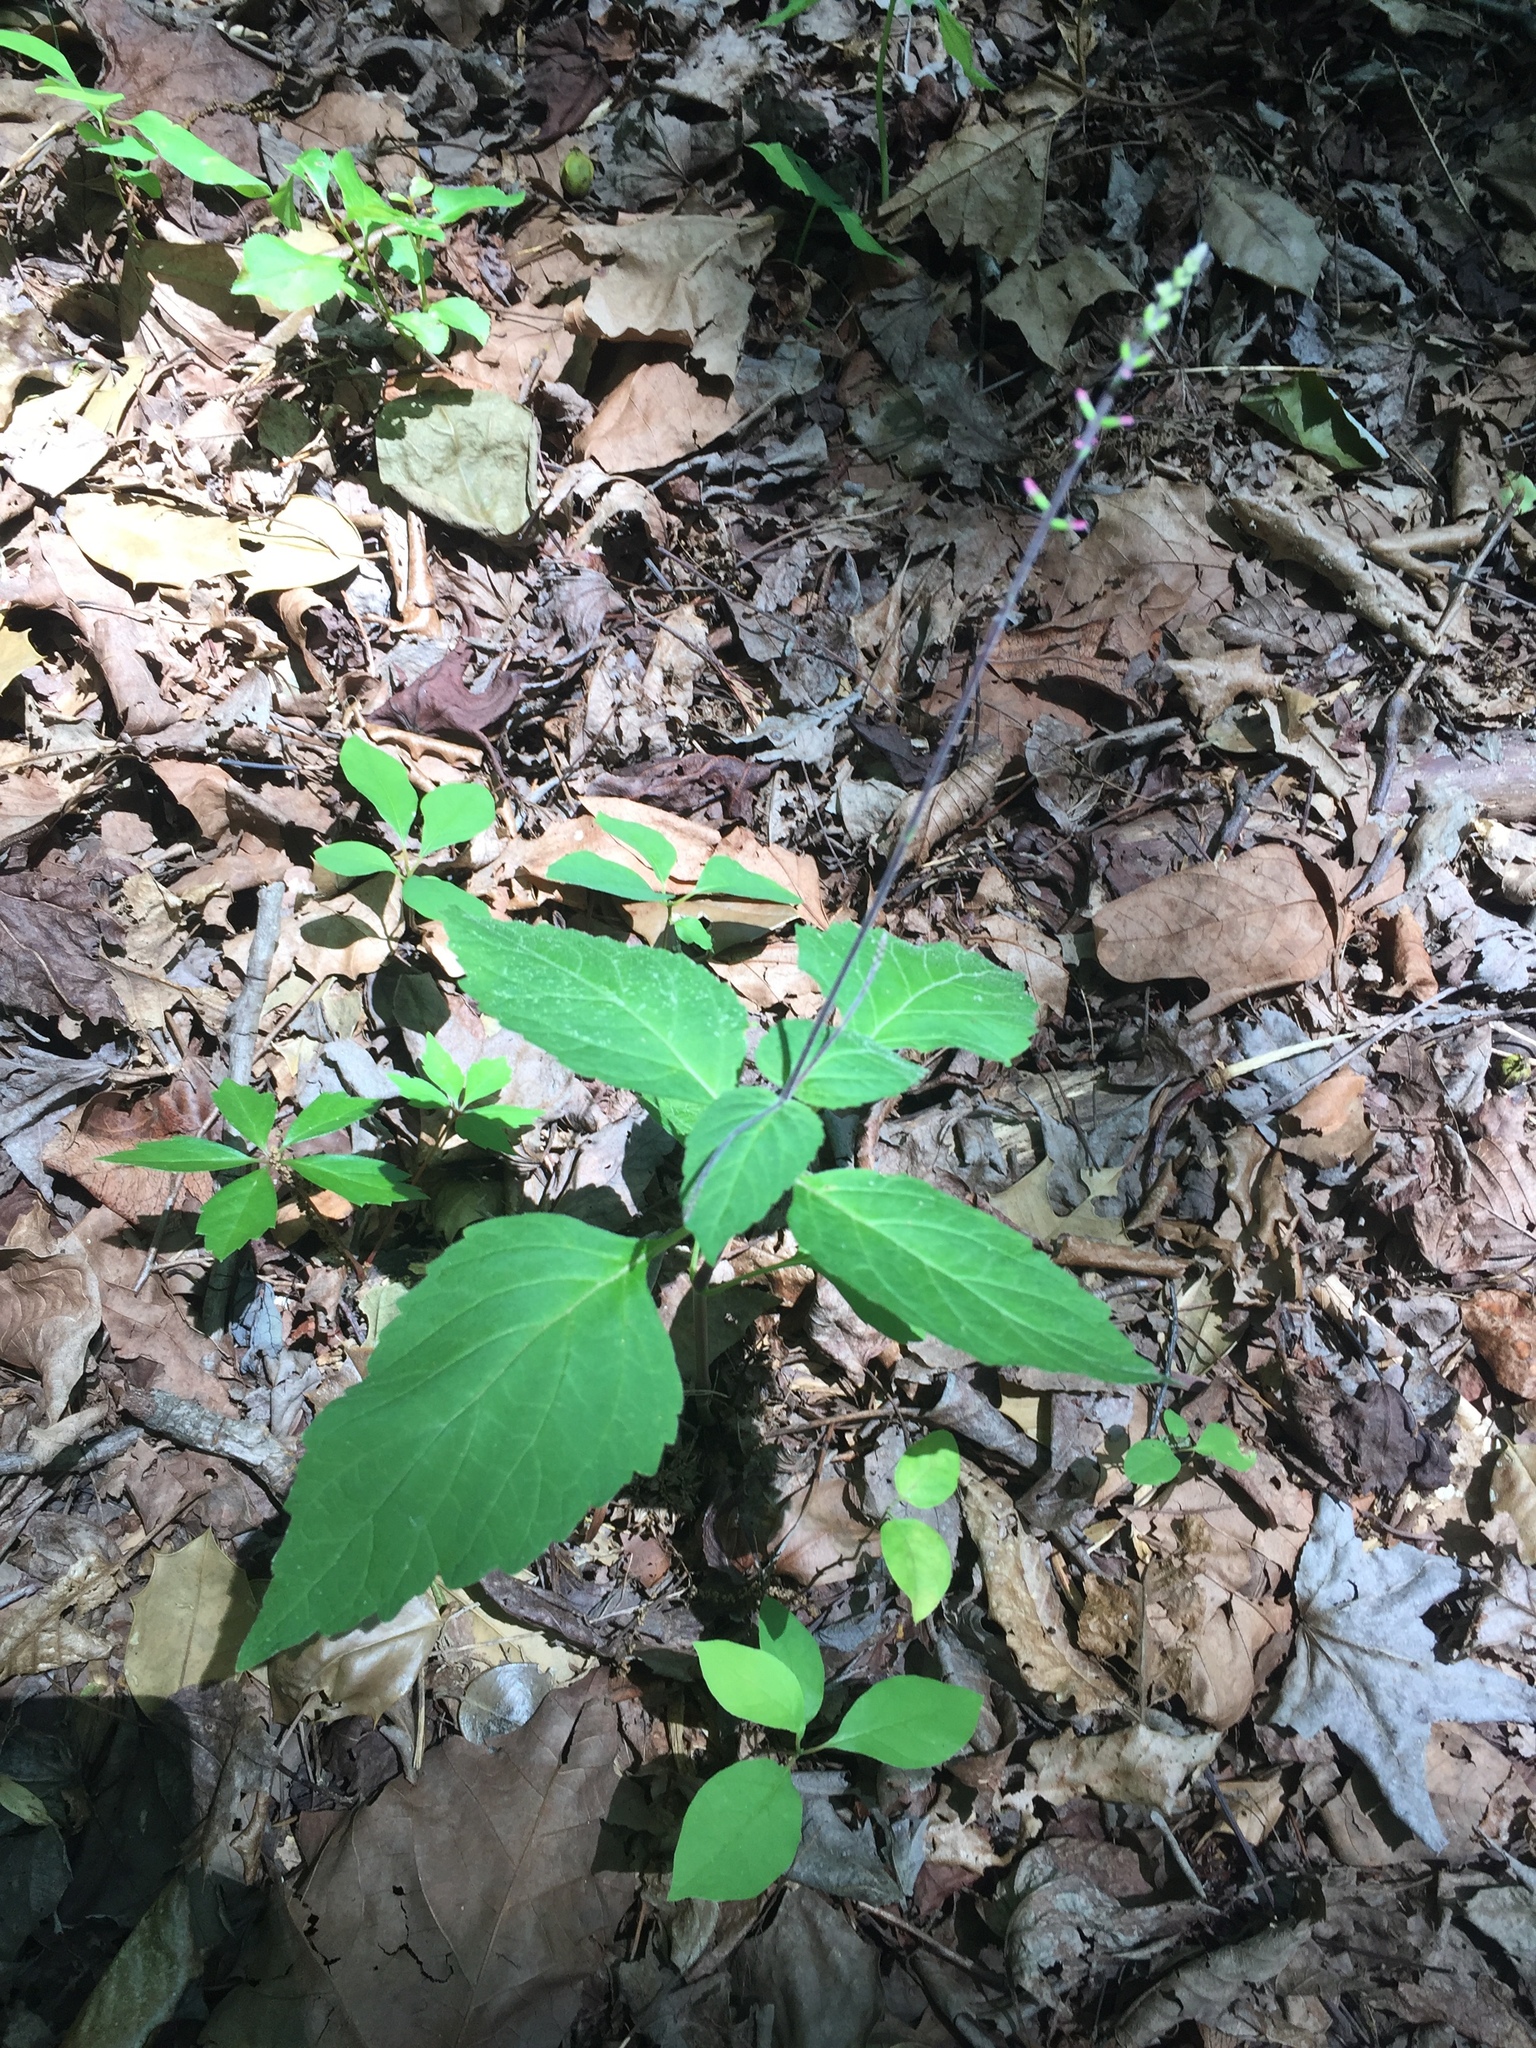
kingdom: Plantae
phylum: Tracheophyta
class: Magnoliopsida
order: Lamiales
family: Phrymaceae
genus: Phryma
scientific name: Phryma leptostachya
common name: American lopseed
